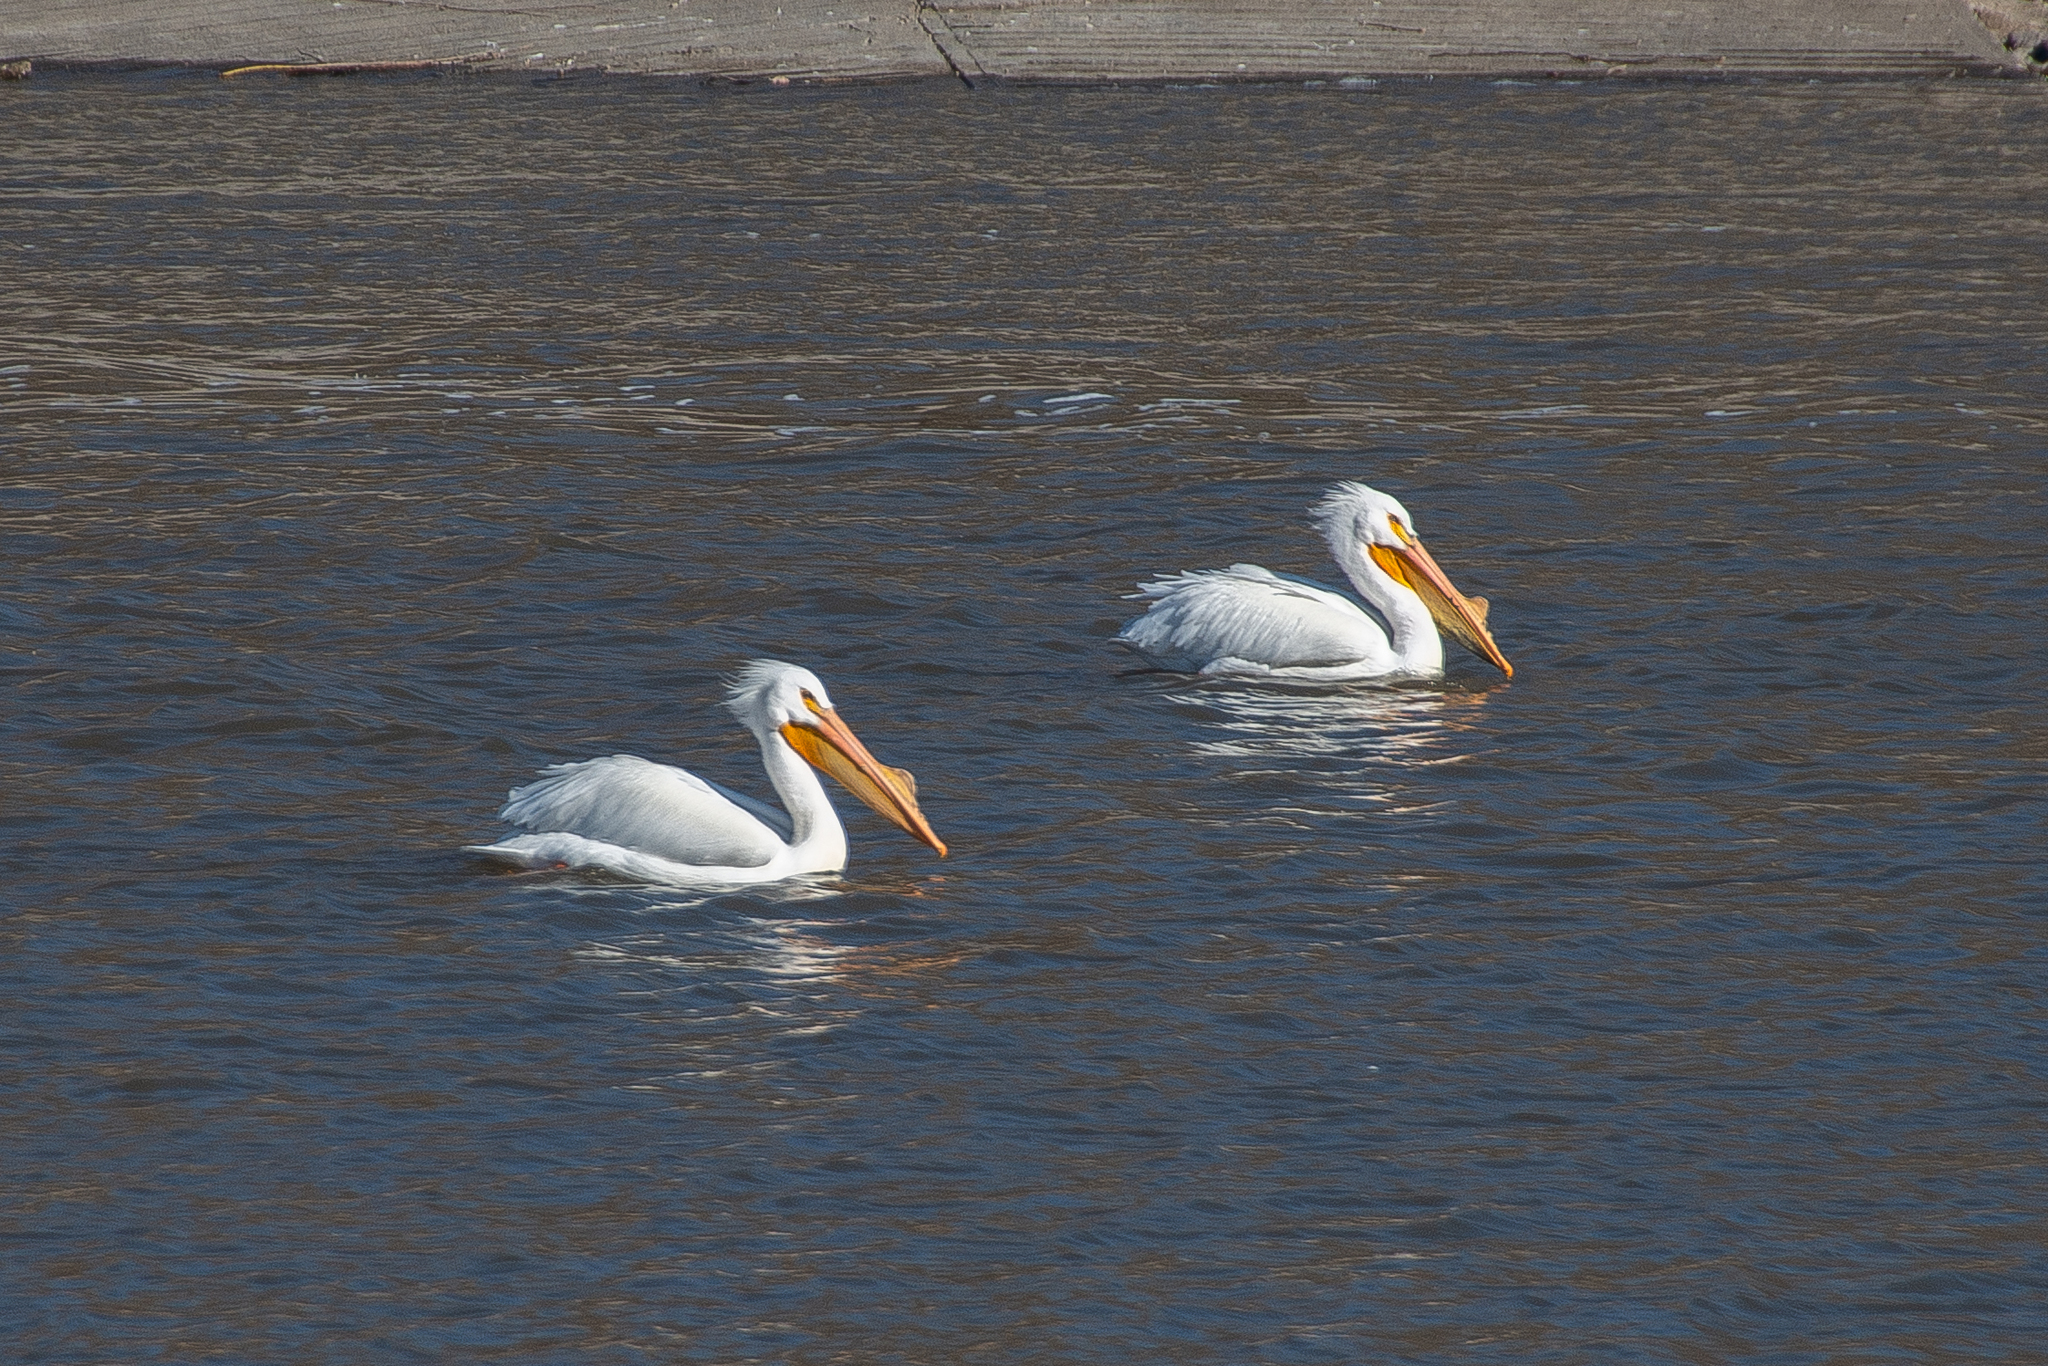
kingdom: Animalia
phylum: Chordata
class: Aves
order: Pelecaniformes
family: Pelecanidae
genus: Pelecanus
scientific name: Pelecanus erythrorhynchos
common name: American white pelican
